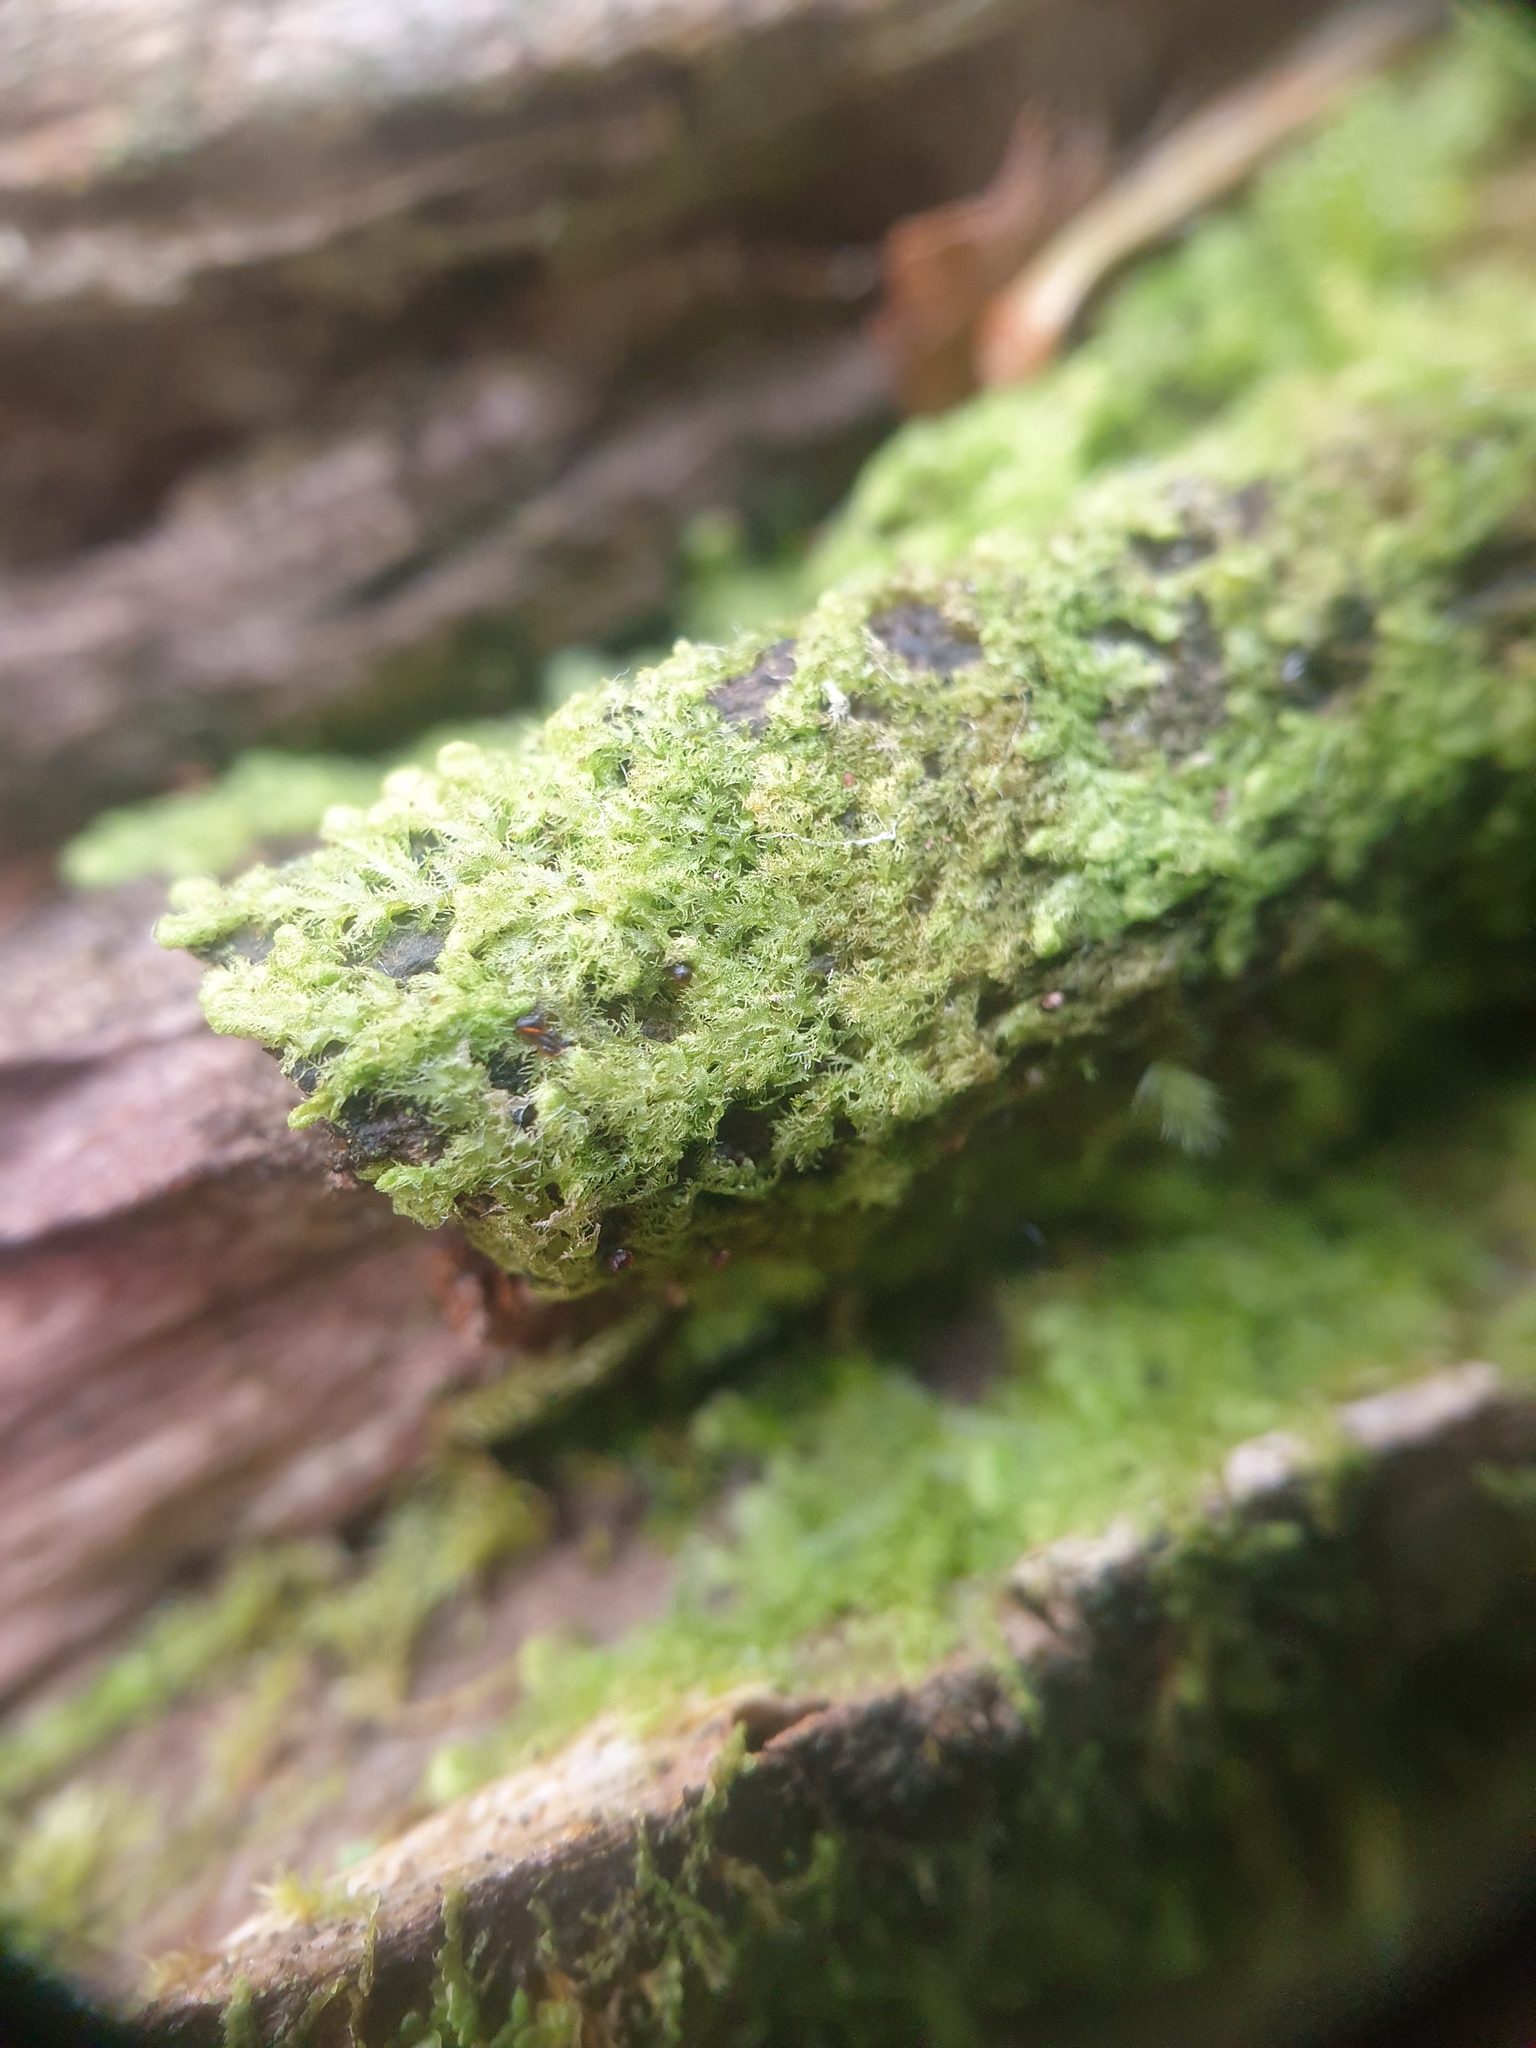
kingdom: Plantae
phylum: Marchantiophyta
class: Jungermanniopsida
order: Ptilidiales
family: Ptilidiaceae
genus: Ptilidium
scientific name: Ptilidium pulcherrimum
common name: Tree fringewort
